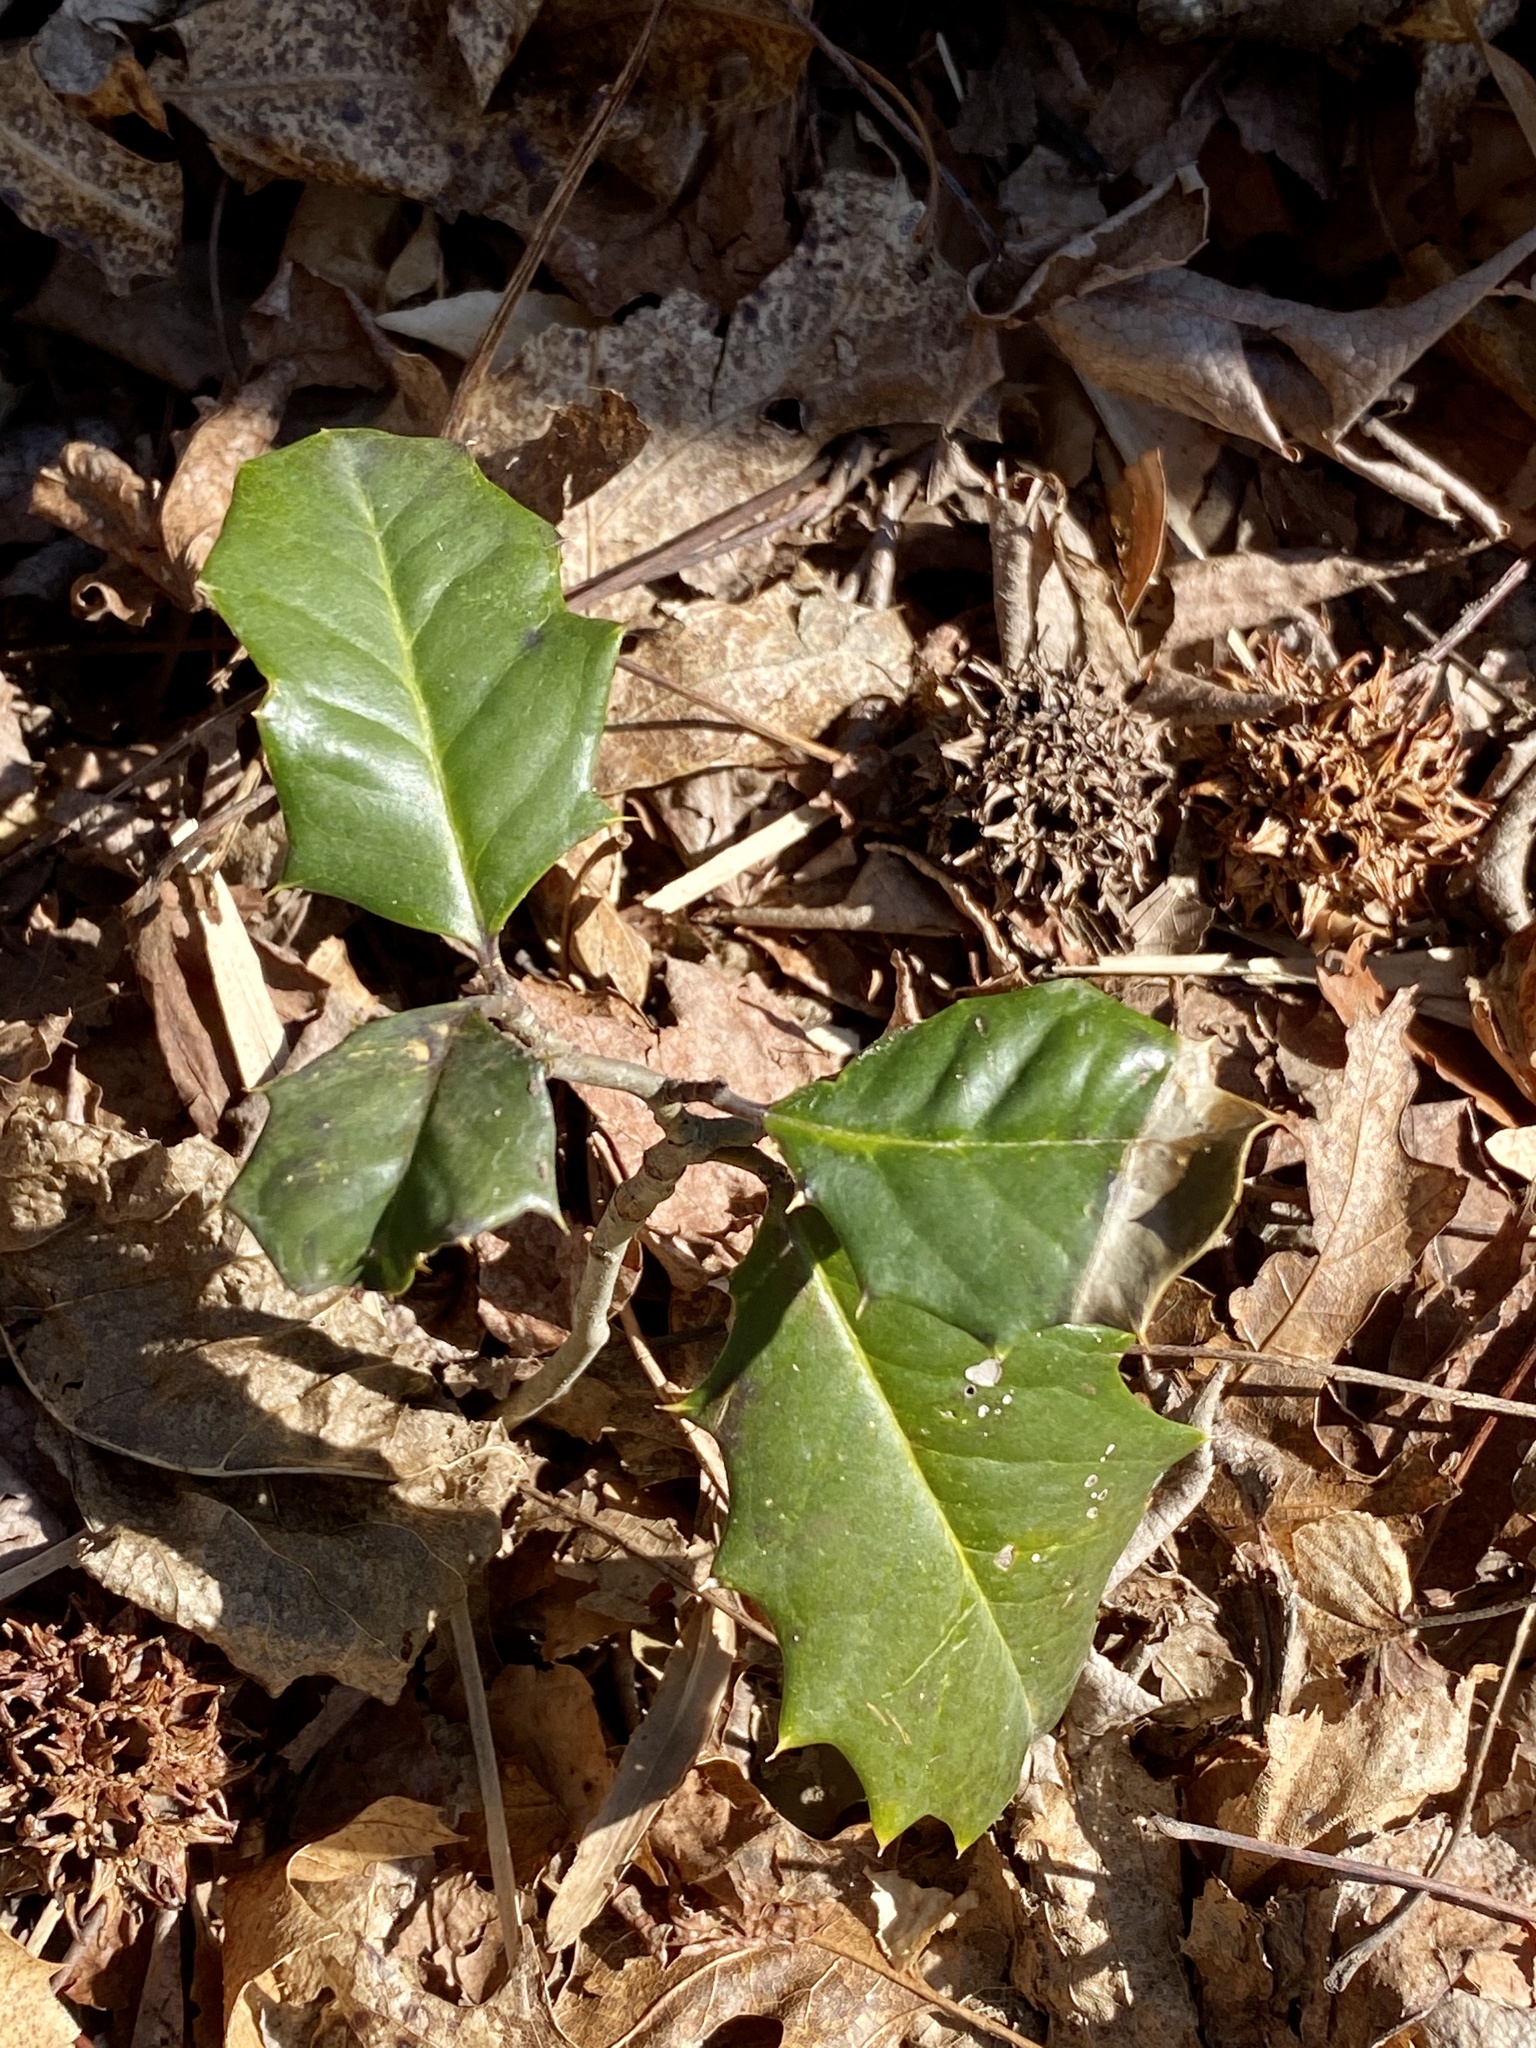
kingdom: Plantae
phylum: Tracheophyta
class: Magnoliopsida
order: Aquifoliales
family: Aquifoliaceae
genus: Ilex
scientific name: Ilex opaca
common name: American holly
